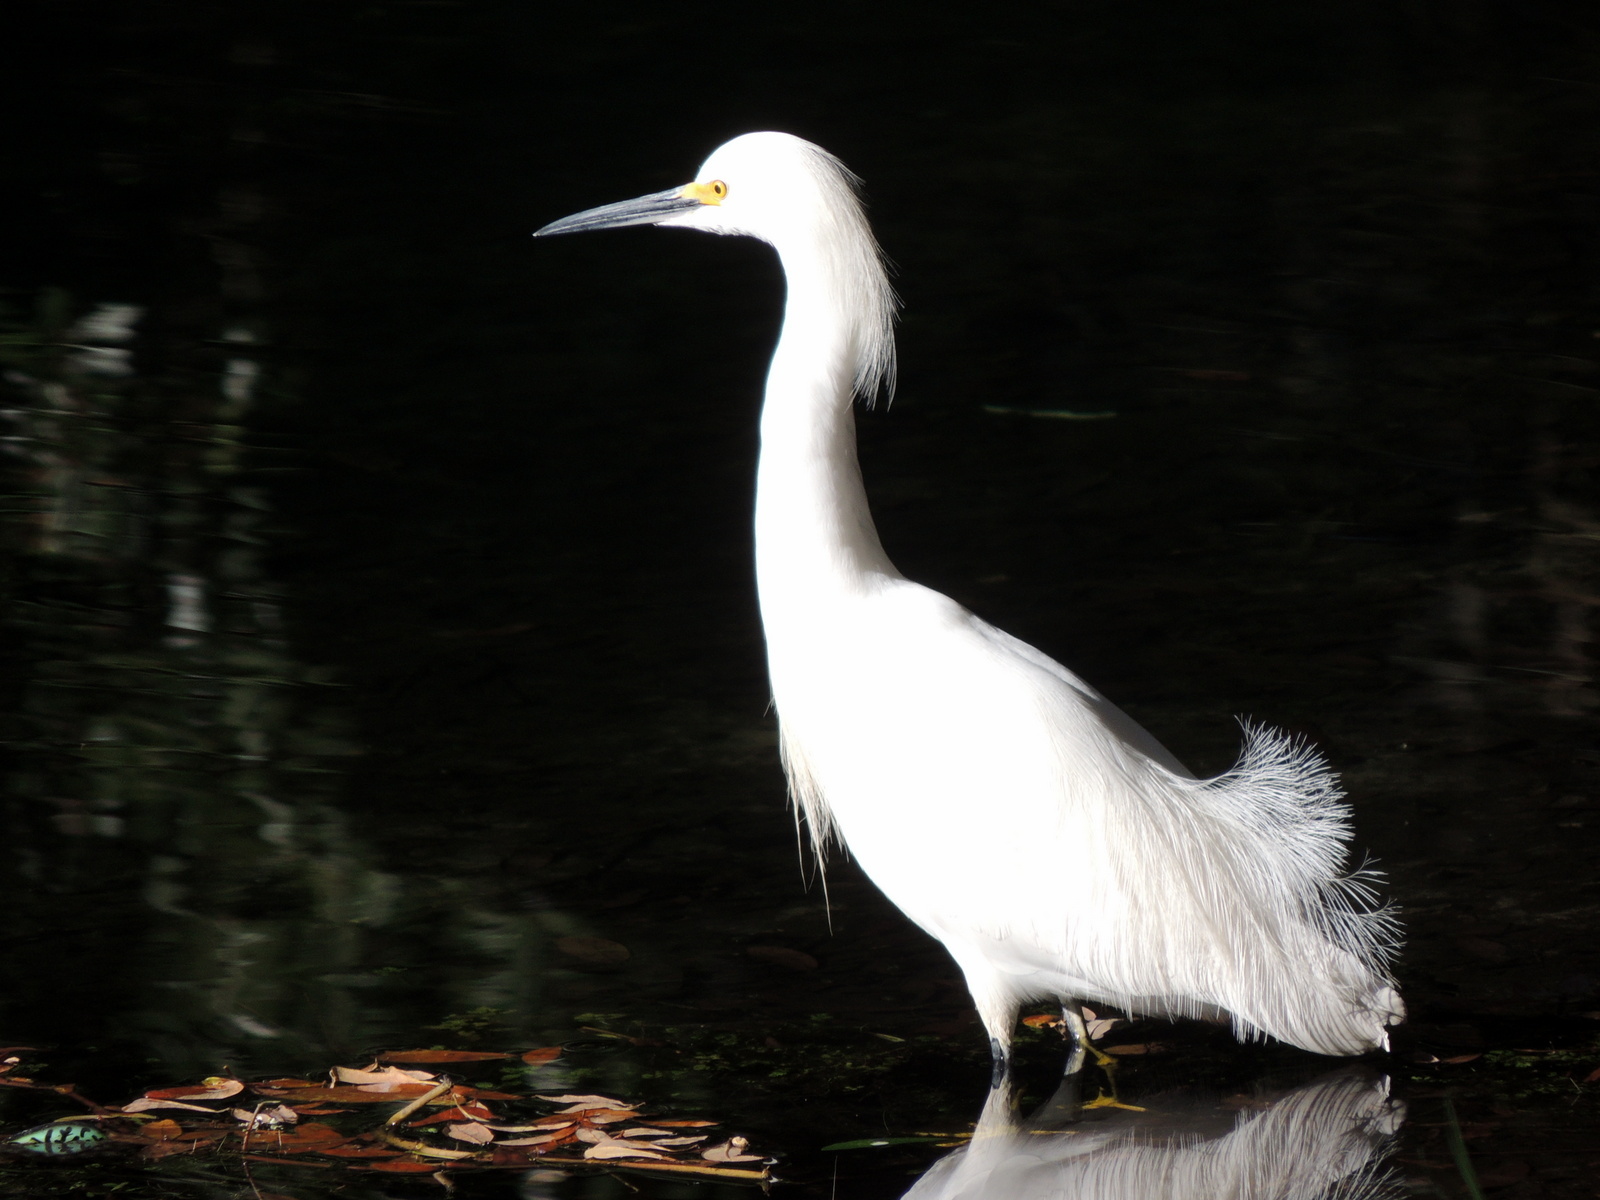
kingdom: Animalia
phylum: Chordata
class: Aves
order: Pelecaniformes
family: Ardeidae
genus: Egretta
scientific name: Egretta thula
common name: Snowy egret
